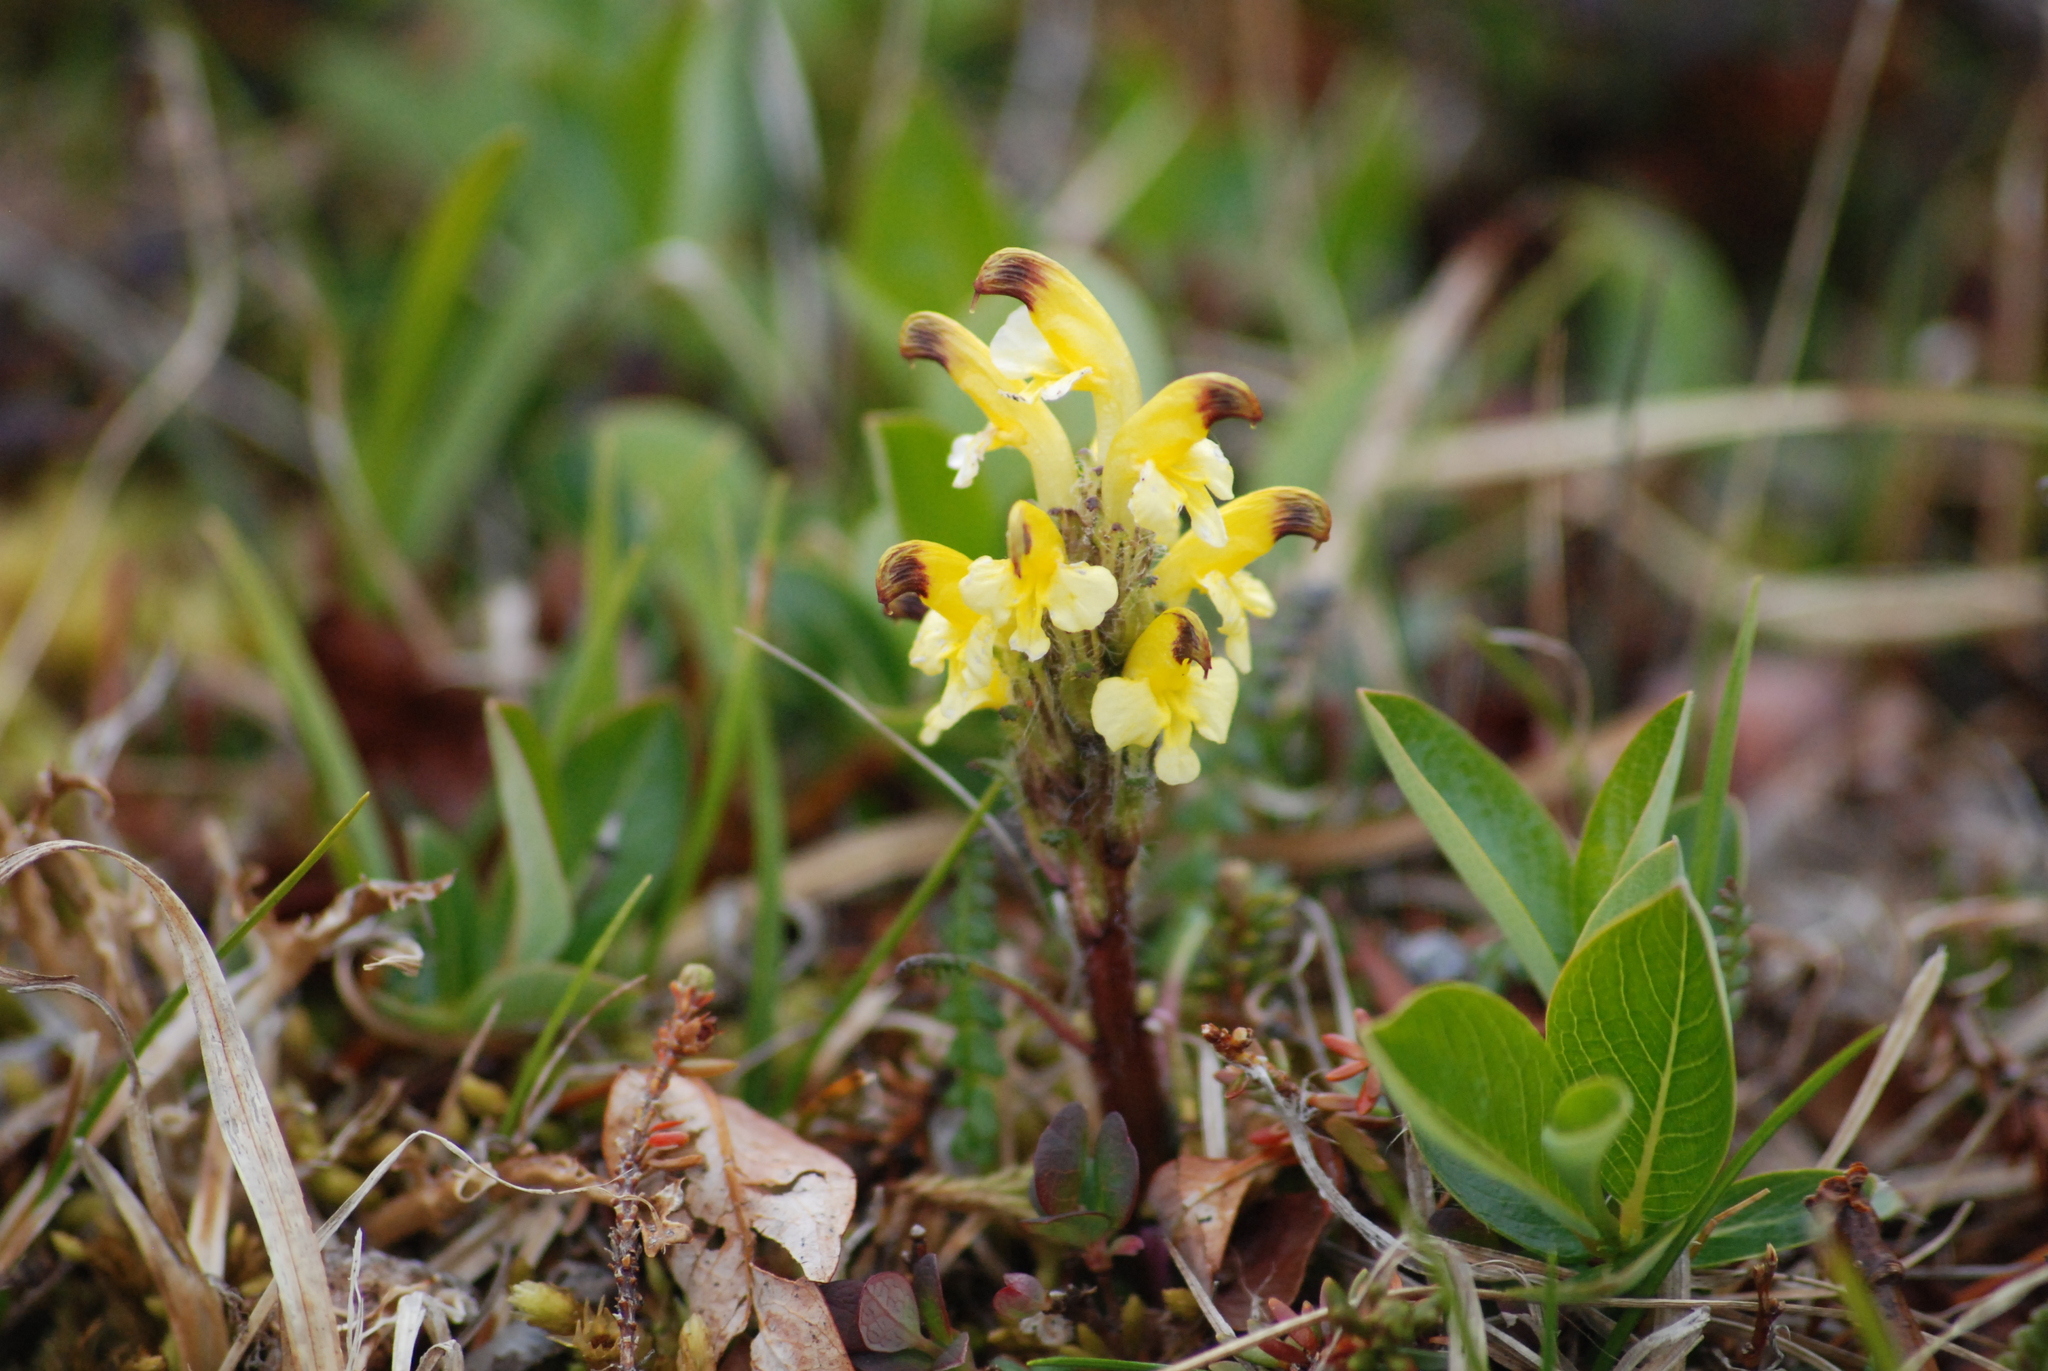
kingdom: Plantae
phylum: Tracheophyta
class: Magnoliopsida
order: Lamiales
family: Orobanchaceae
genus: Pedicularis
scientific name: Pedicularis oederi
